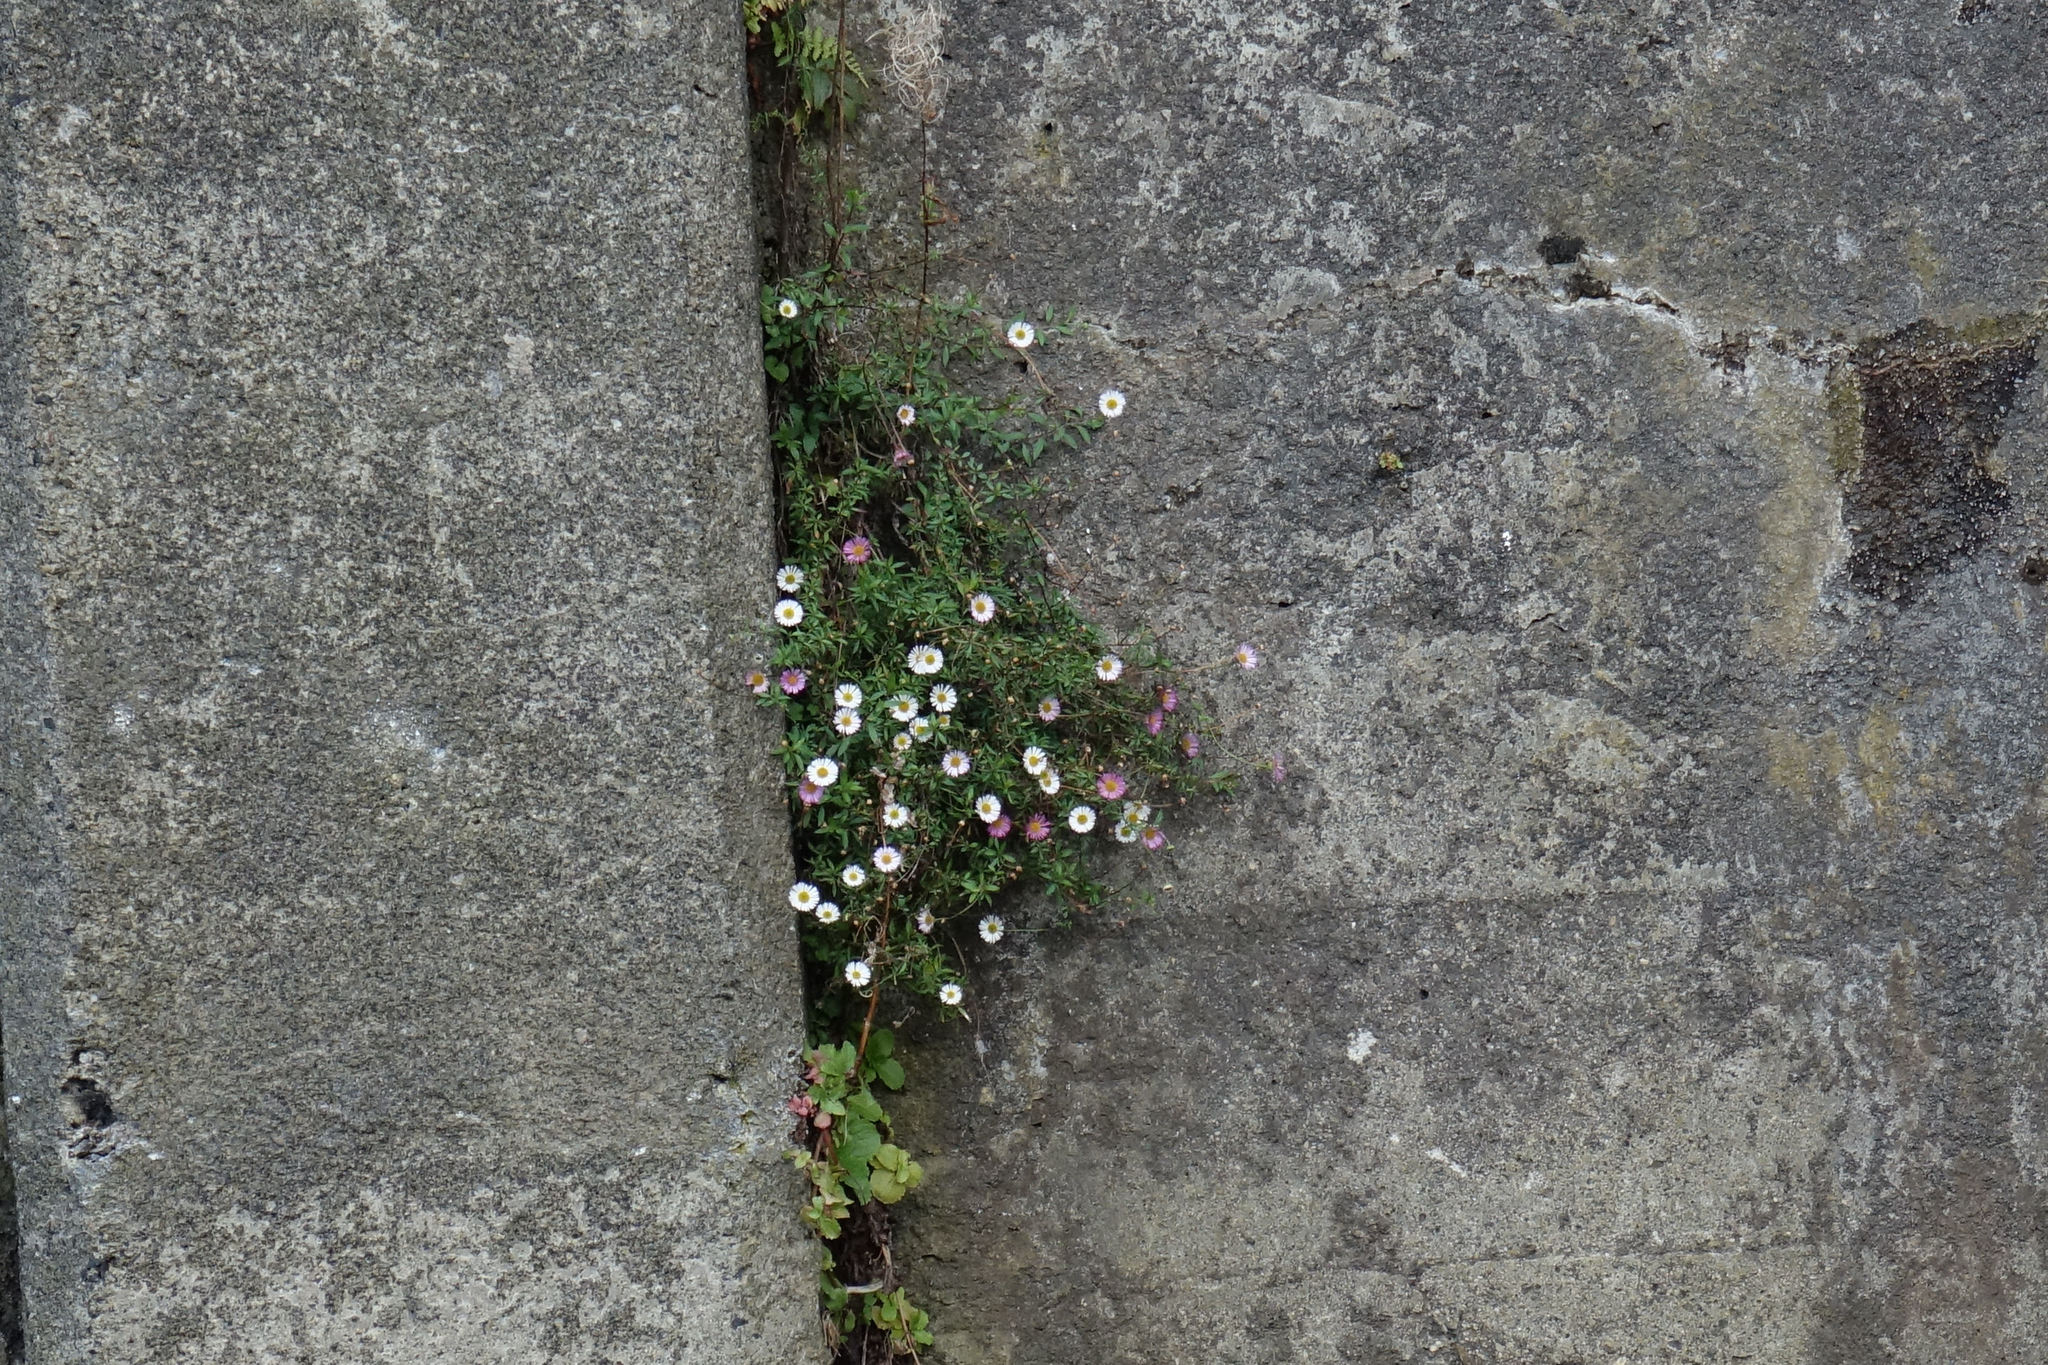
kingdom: Plantae
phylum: Tracheophyta
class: Magnoliopsida
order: Asterales
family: Asteraceae
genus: Erigeron
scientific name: Erigeron karvinskianus
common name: Mexican fleabane
